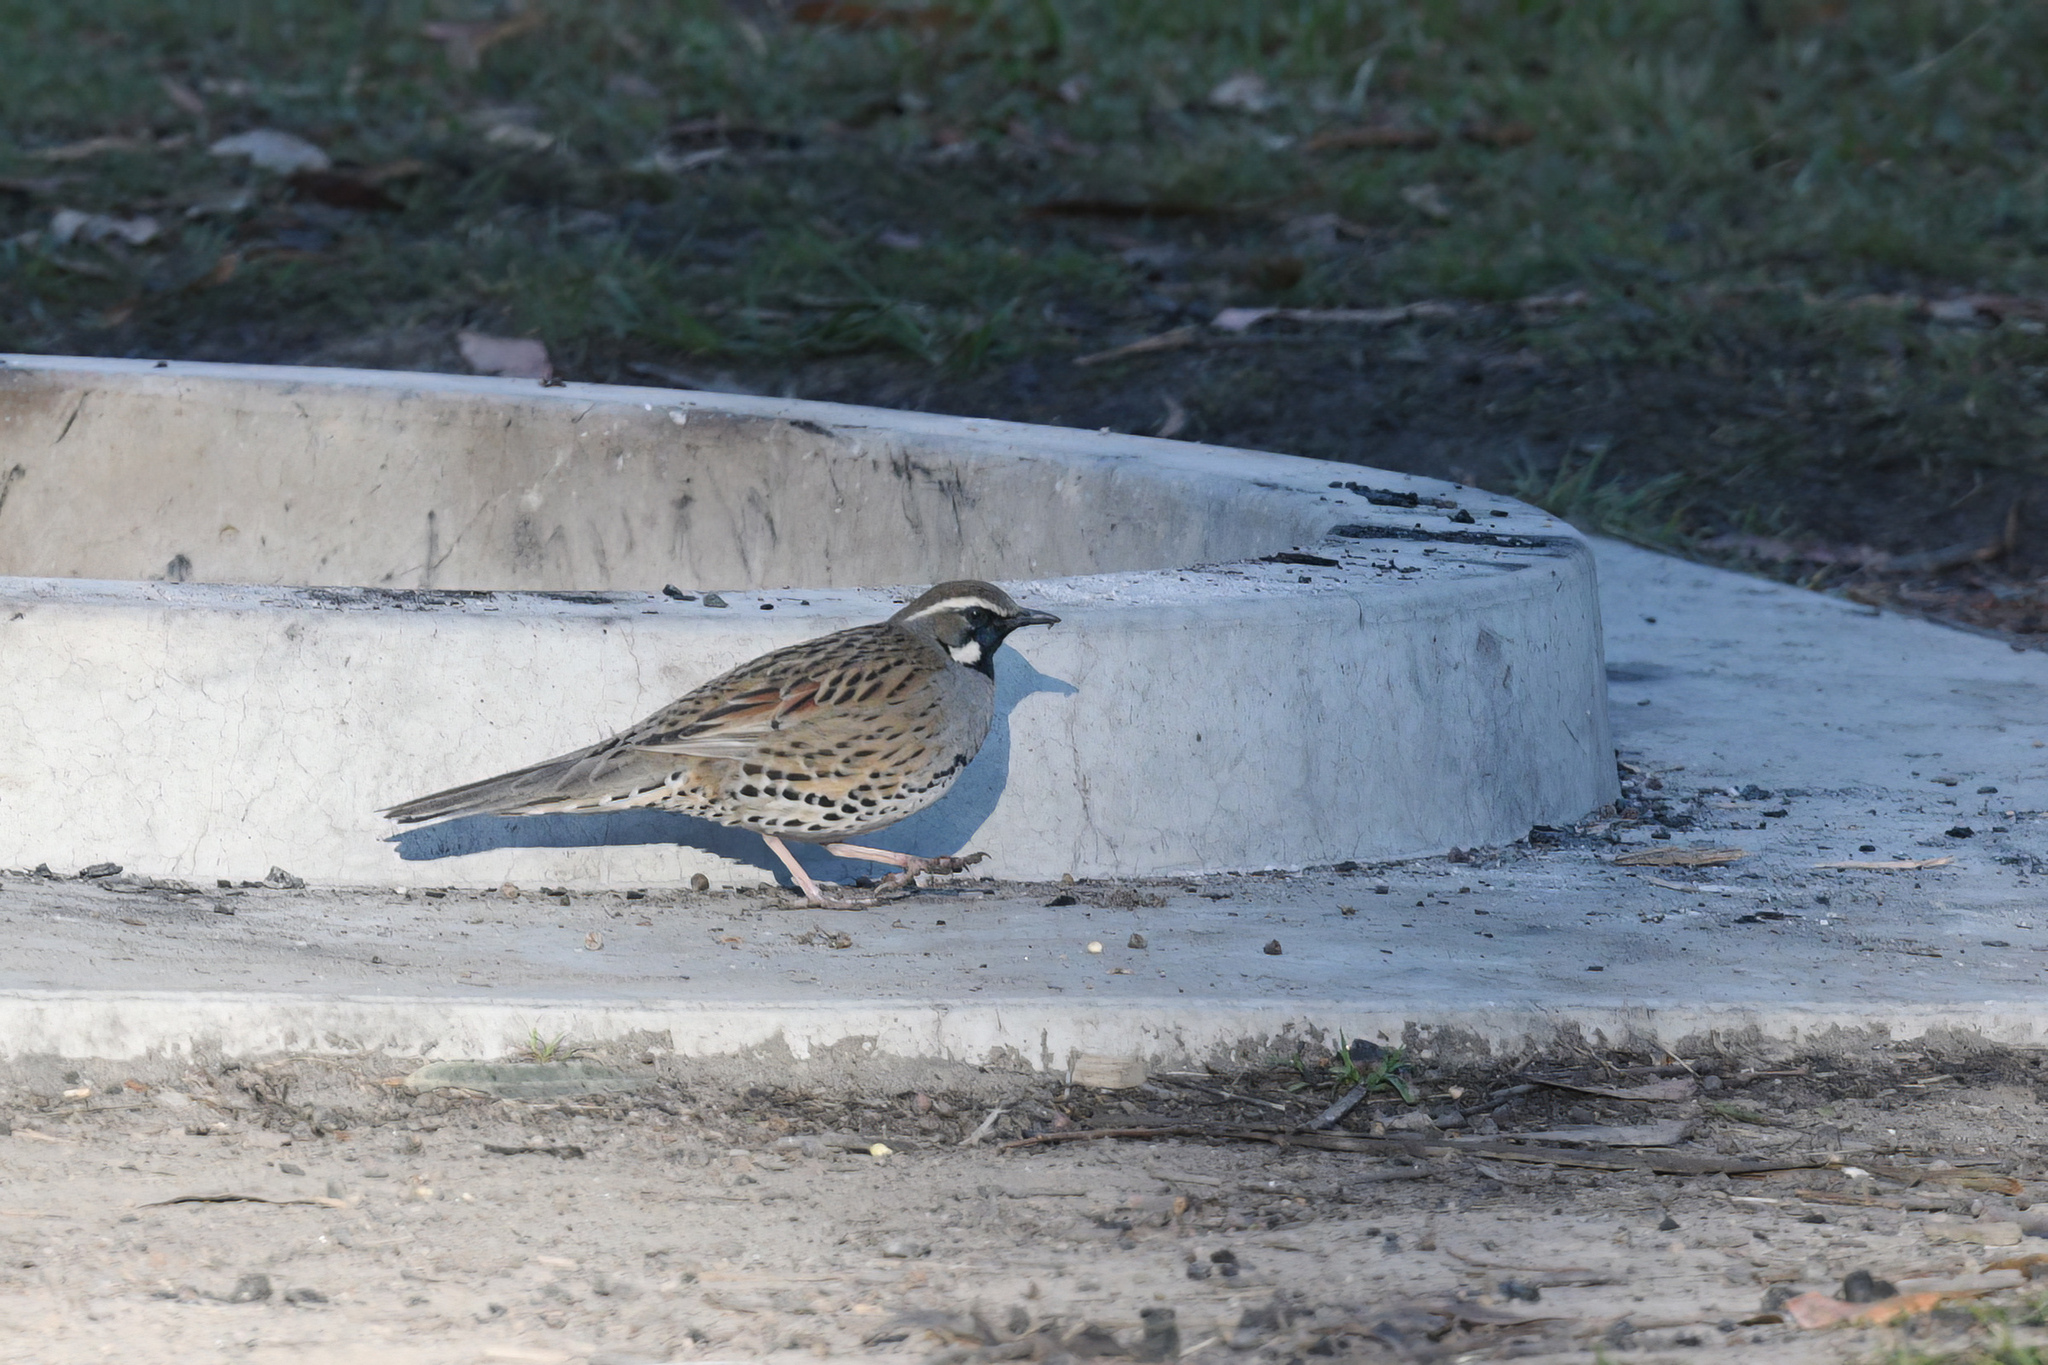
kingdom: Animalia
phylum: Chordata
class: Aves
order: Passeriformes
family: Psophodidae
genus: Cinclosoma
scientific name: Cinclosoma punctatum
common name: Spotted quail-thrush
